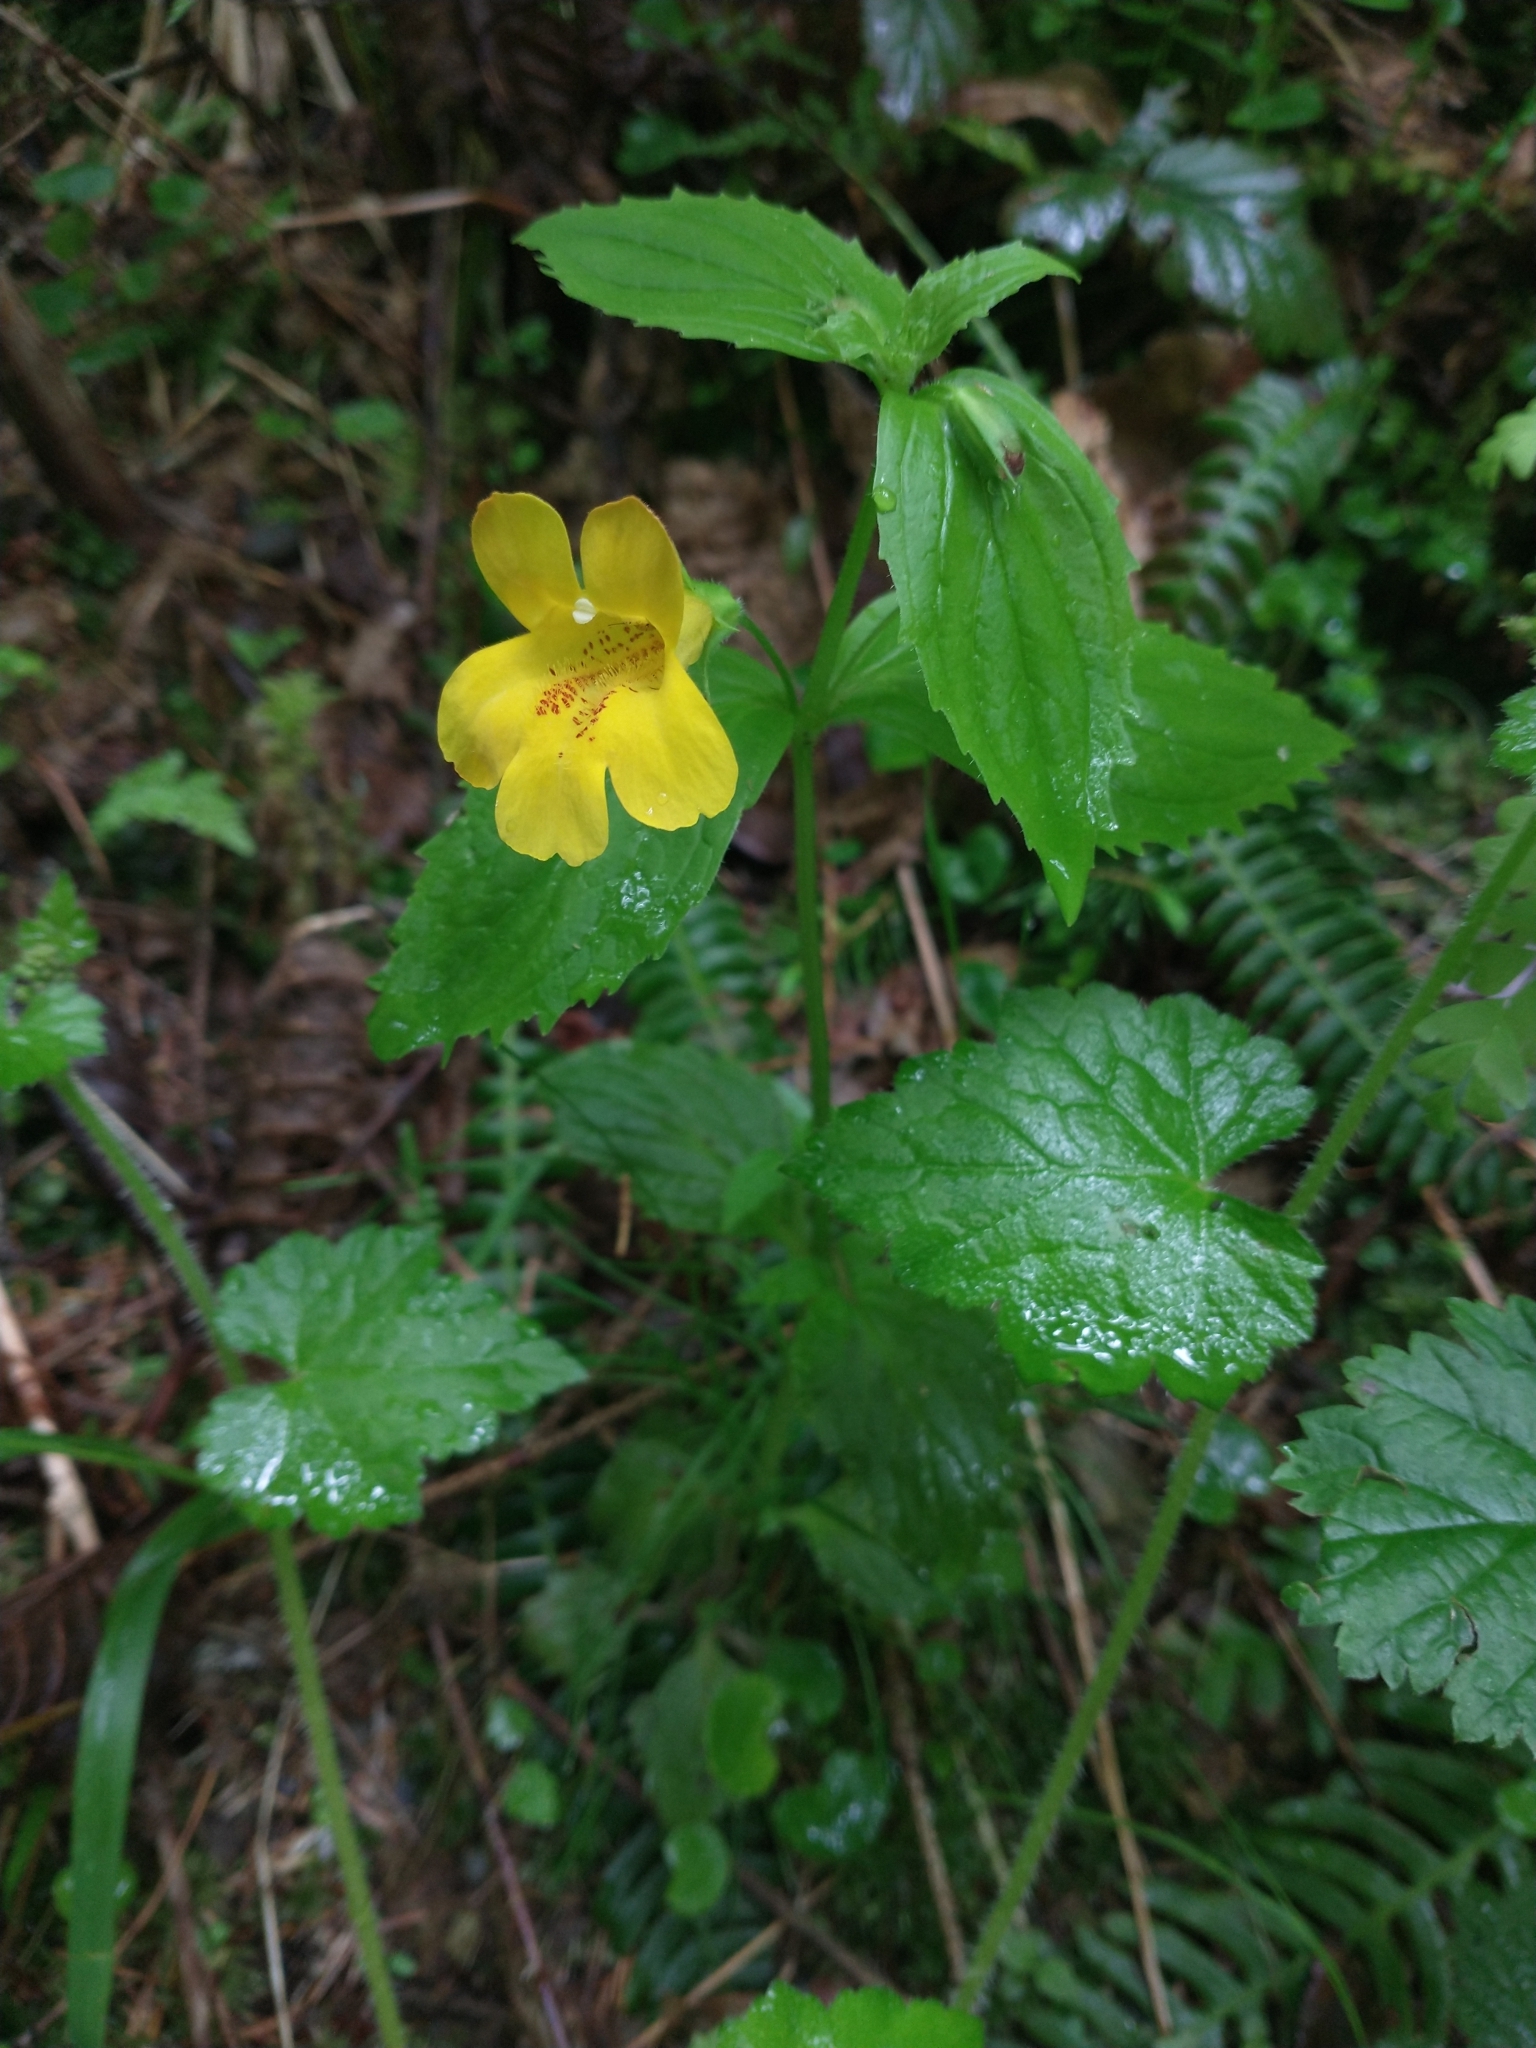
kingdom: Plantae
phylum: Tracheophyta
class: Magnoliopsida
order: Lamiales
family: Phrymaceae
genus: Erythranthe
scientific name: Erythranthe dentata
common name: Coastal monkeyflower
